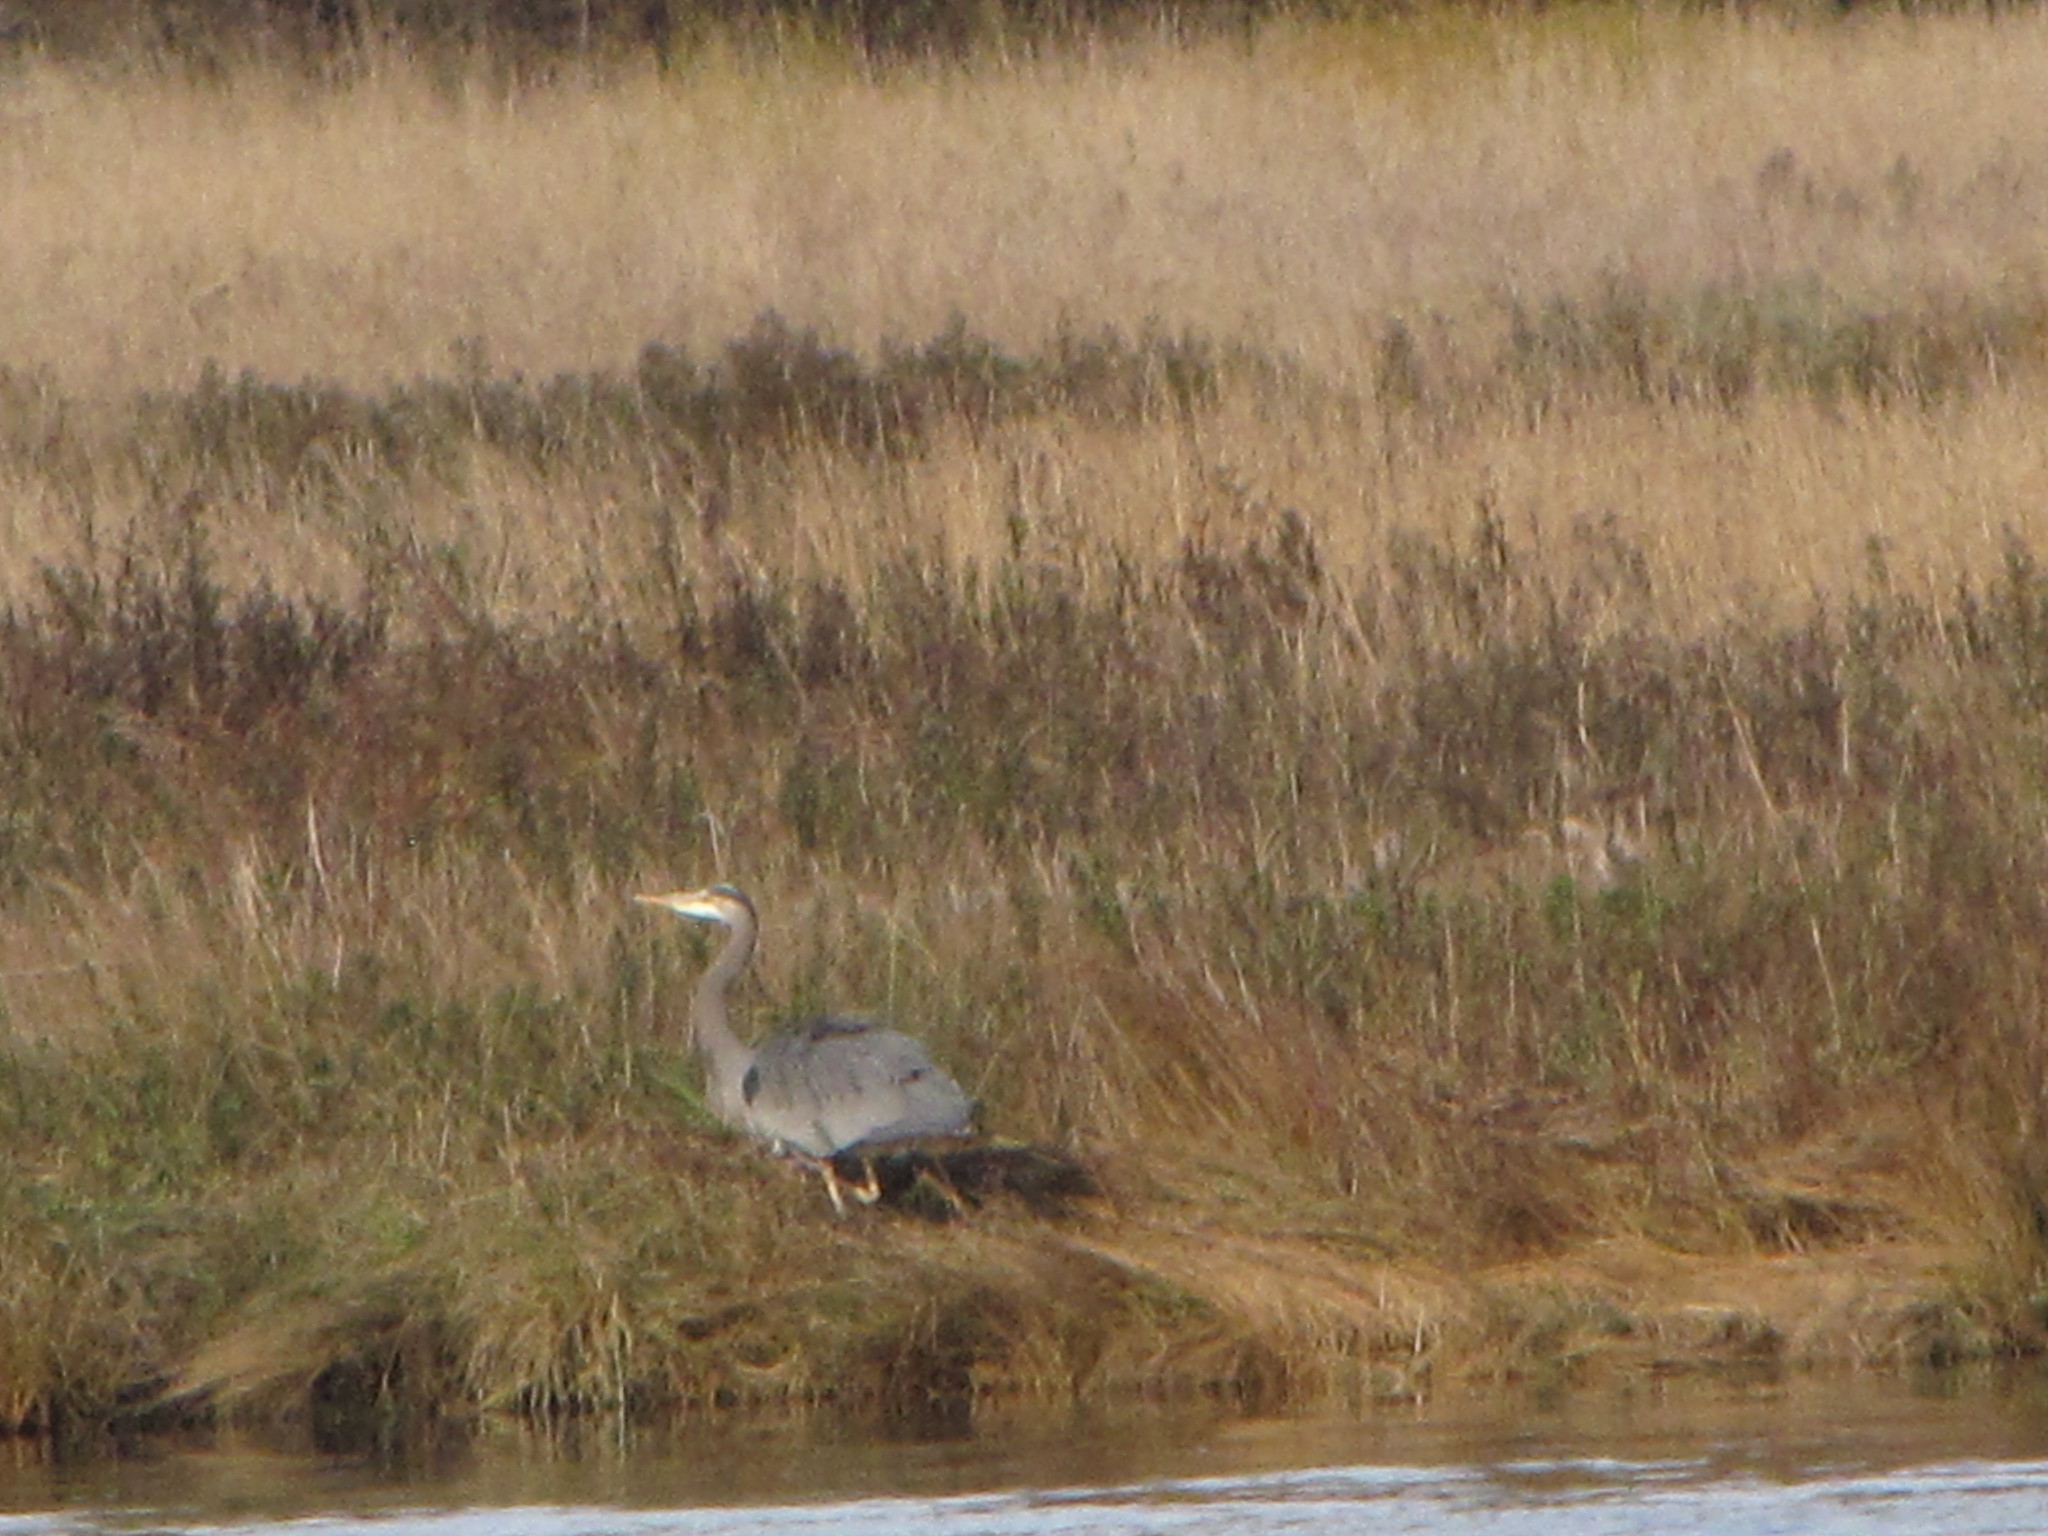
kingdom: Animalia
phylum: Chordata
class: Aves
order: Pelecaniformes
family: Ardeidae
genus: Ardea
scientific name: Ardea herodias
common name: Great blue heron
